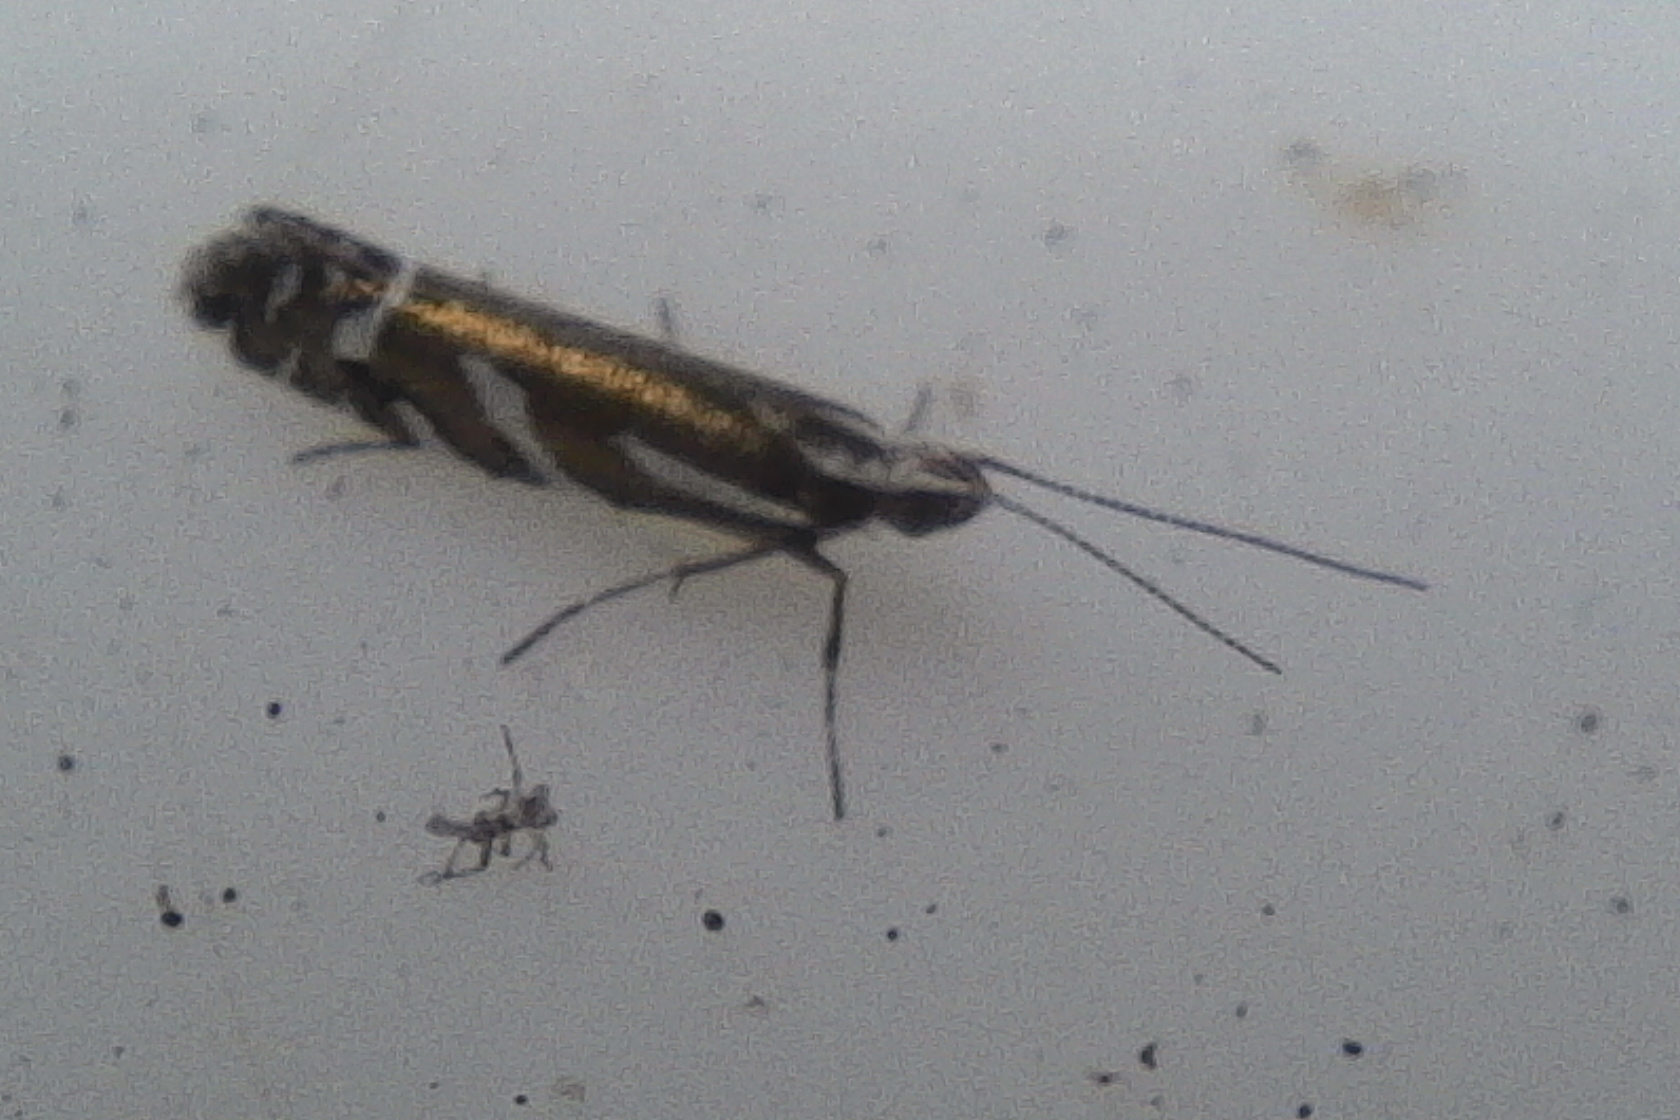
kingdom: Animalia
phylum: Arthropoda
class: Insecta
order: Lepidoptera
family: Glyphipterigidae
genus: Chrysorthenches
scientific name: Chrysorthenches glypharcha
